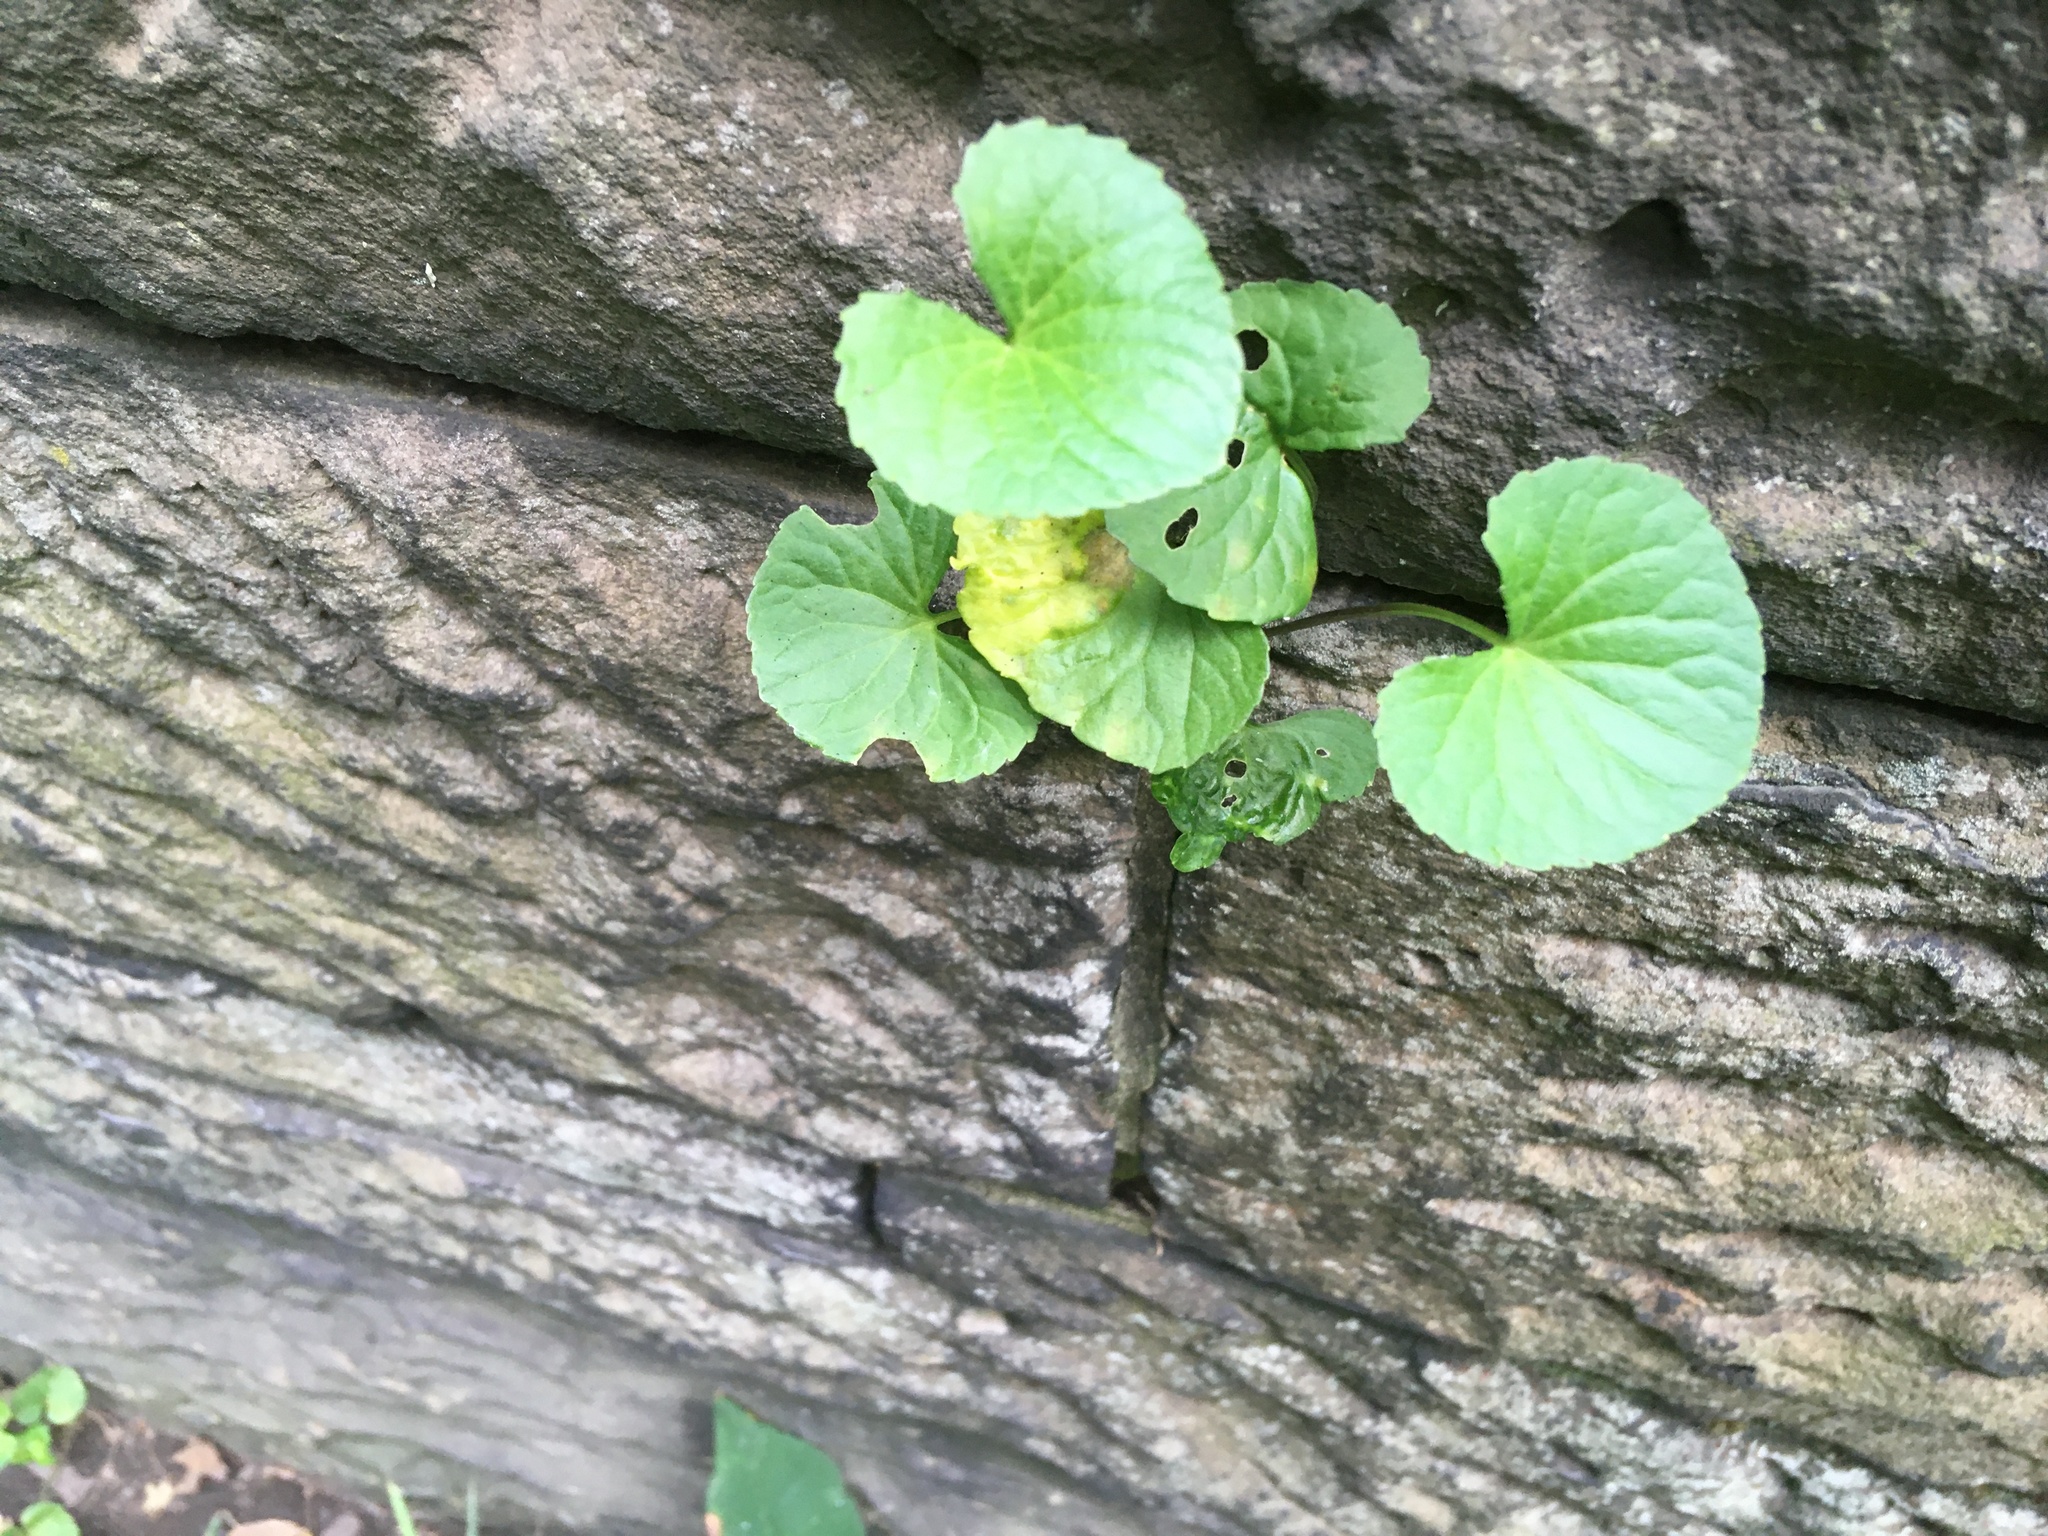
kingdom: Plantae
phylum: Tracheophyta
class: Magnoliopsida
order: Malpighiales
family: Violaceae
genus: Viola
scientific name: Viola sororia
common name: Dooryard violet
